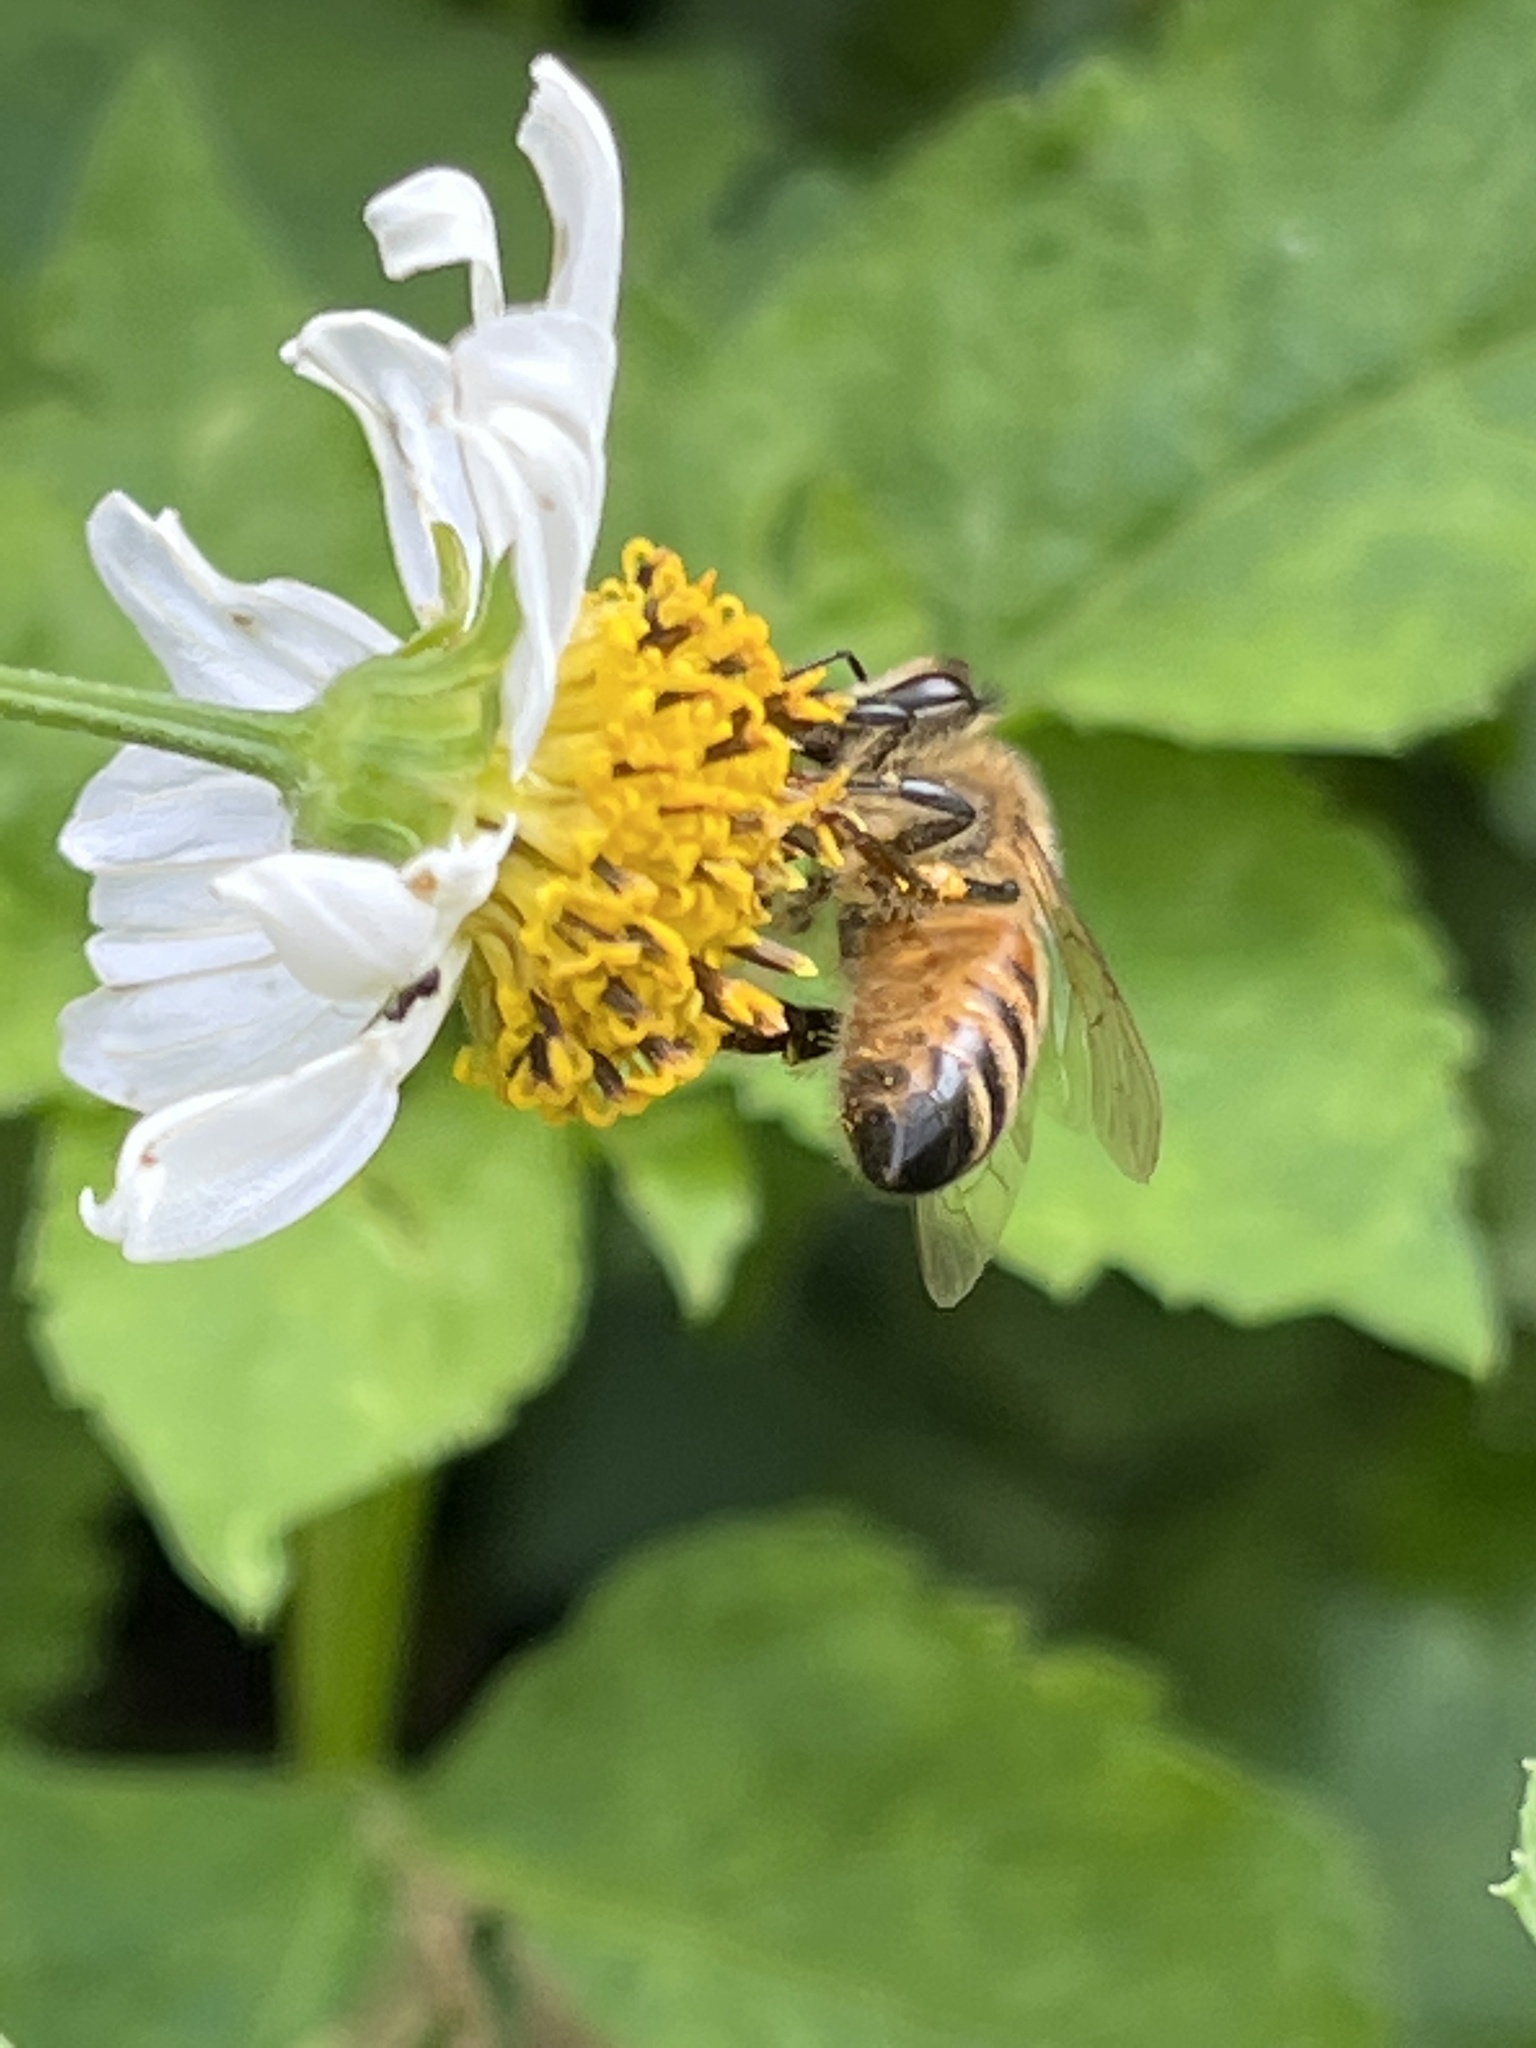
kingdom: Animalia
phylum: Arthropoda
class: Insecta
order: Hymenoptera
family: Apidae
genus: Apis
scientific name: Apis mellifera
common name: Honey bee
